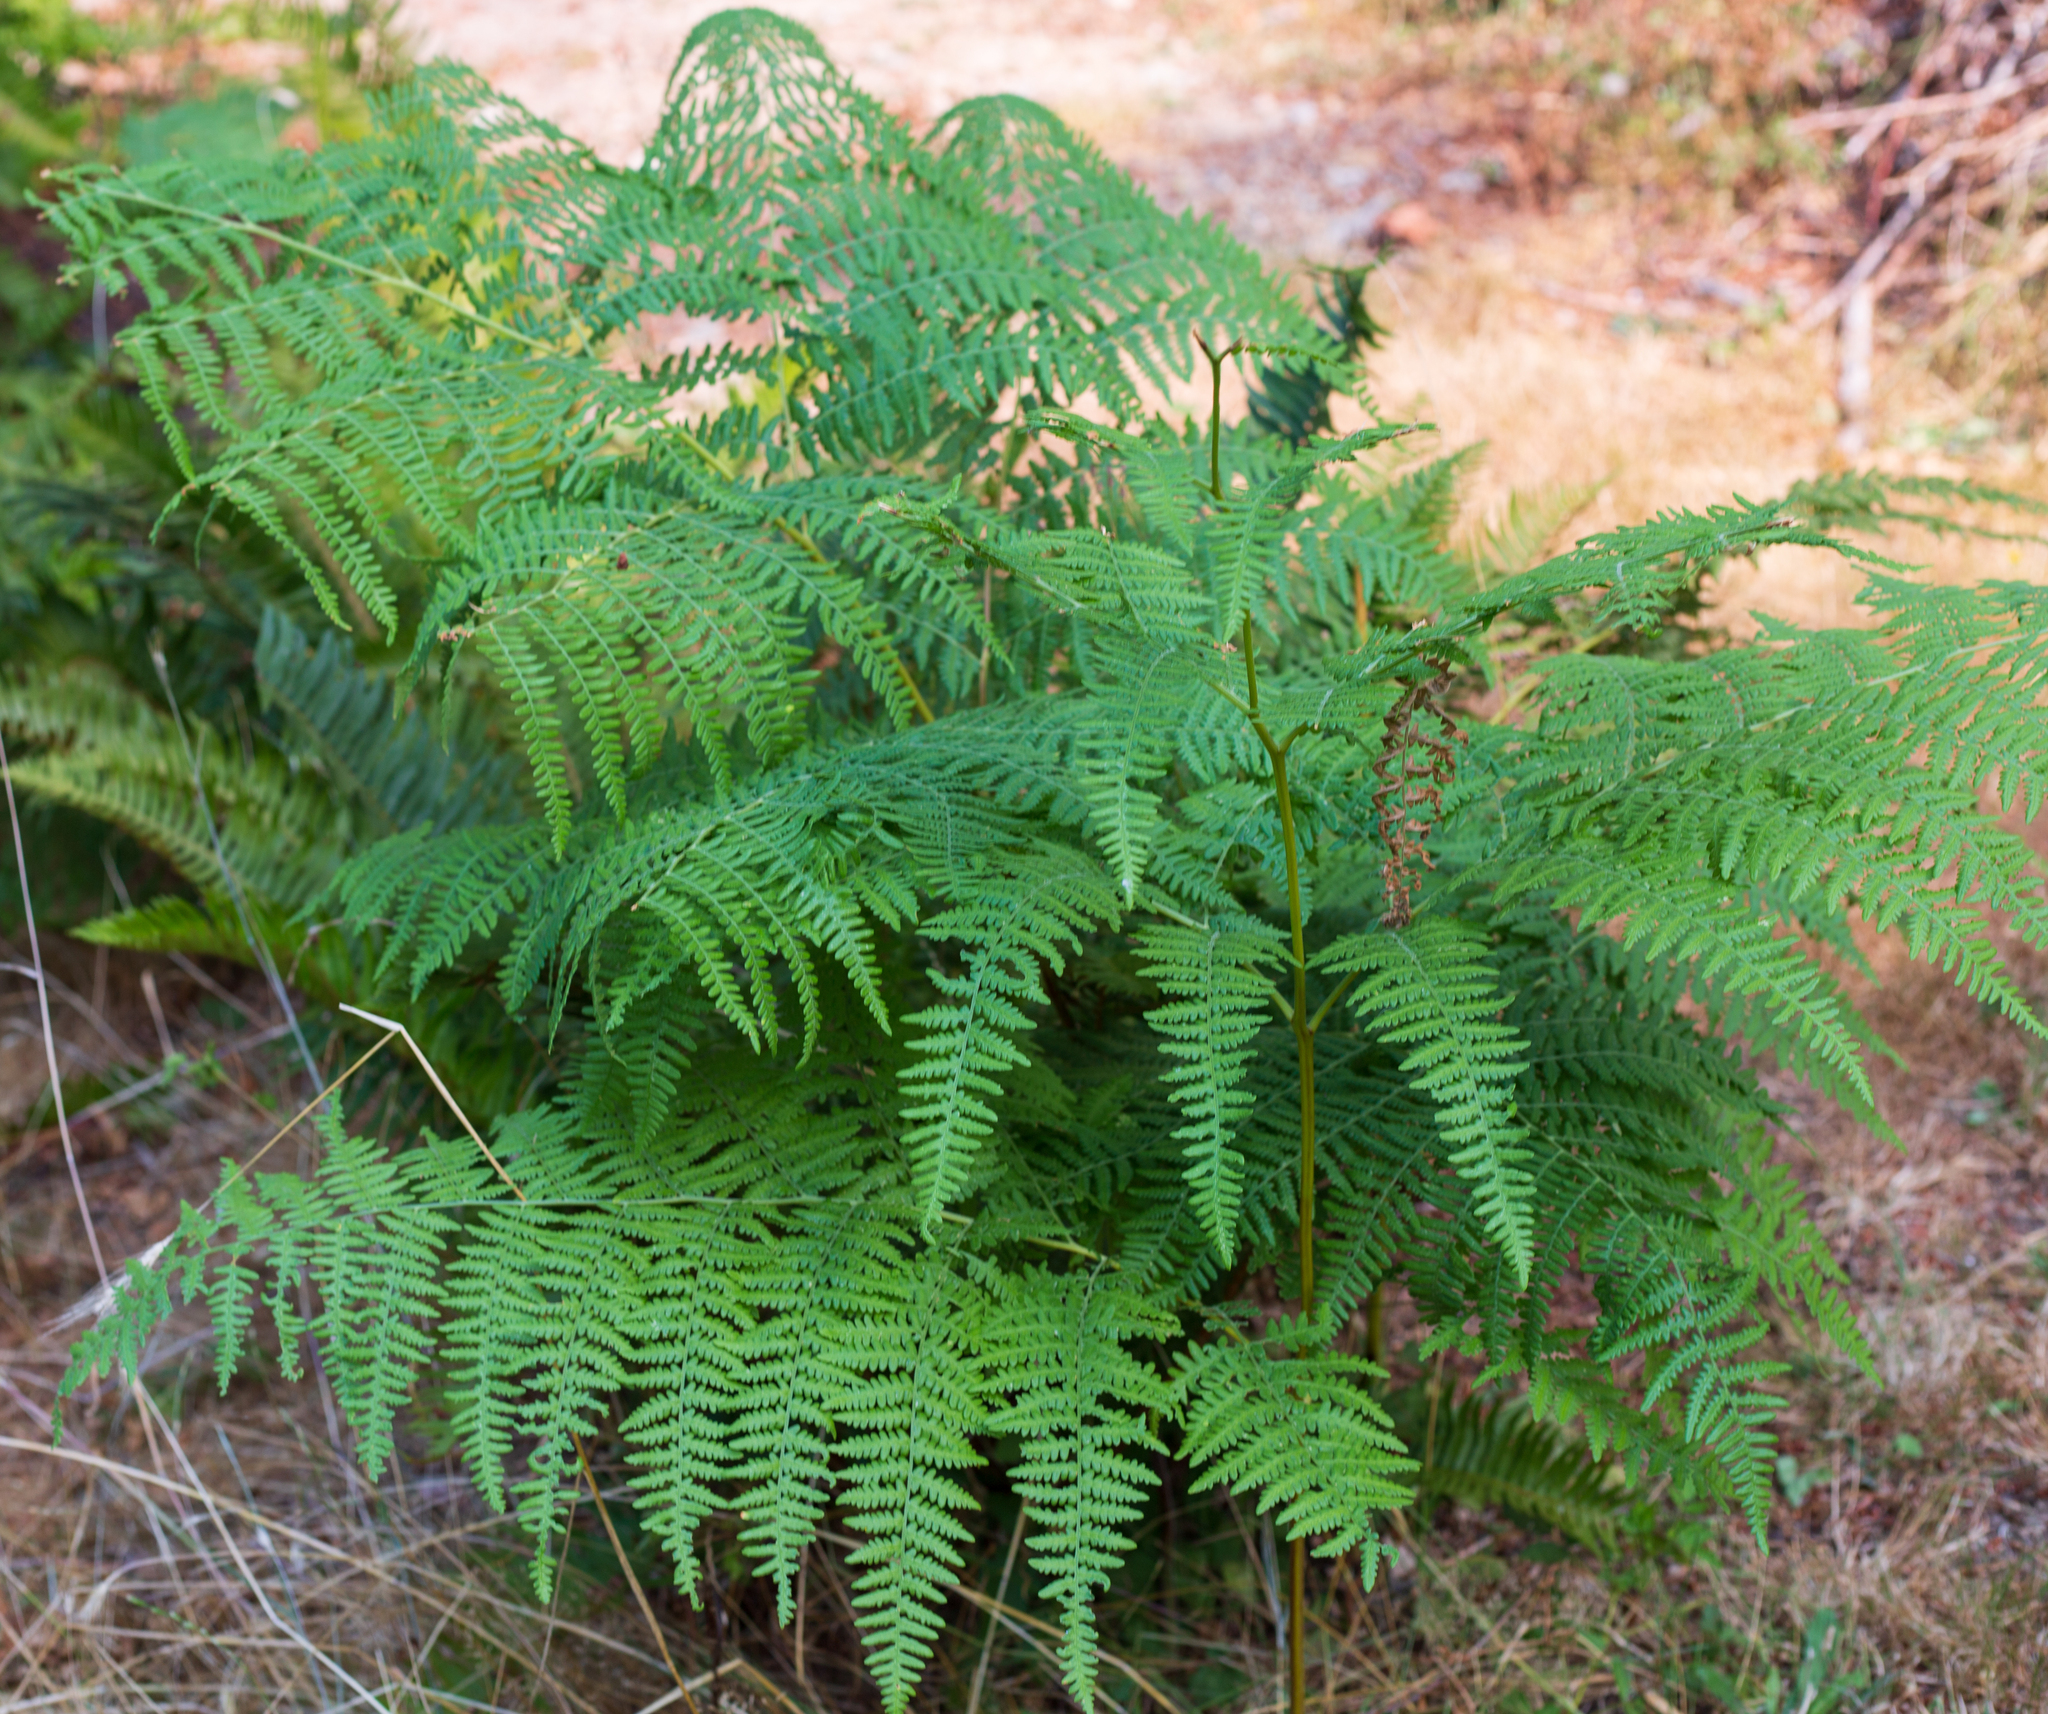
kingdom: Plantae
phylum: Tracheophyta
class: Polypodiopsida
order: Polypodiales
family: Dennstaedtiaceae
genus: Pteridium
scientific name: Pteridium aquilinum
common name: Bracken
